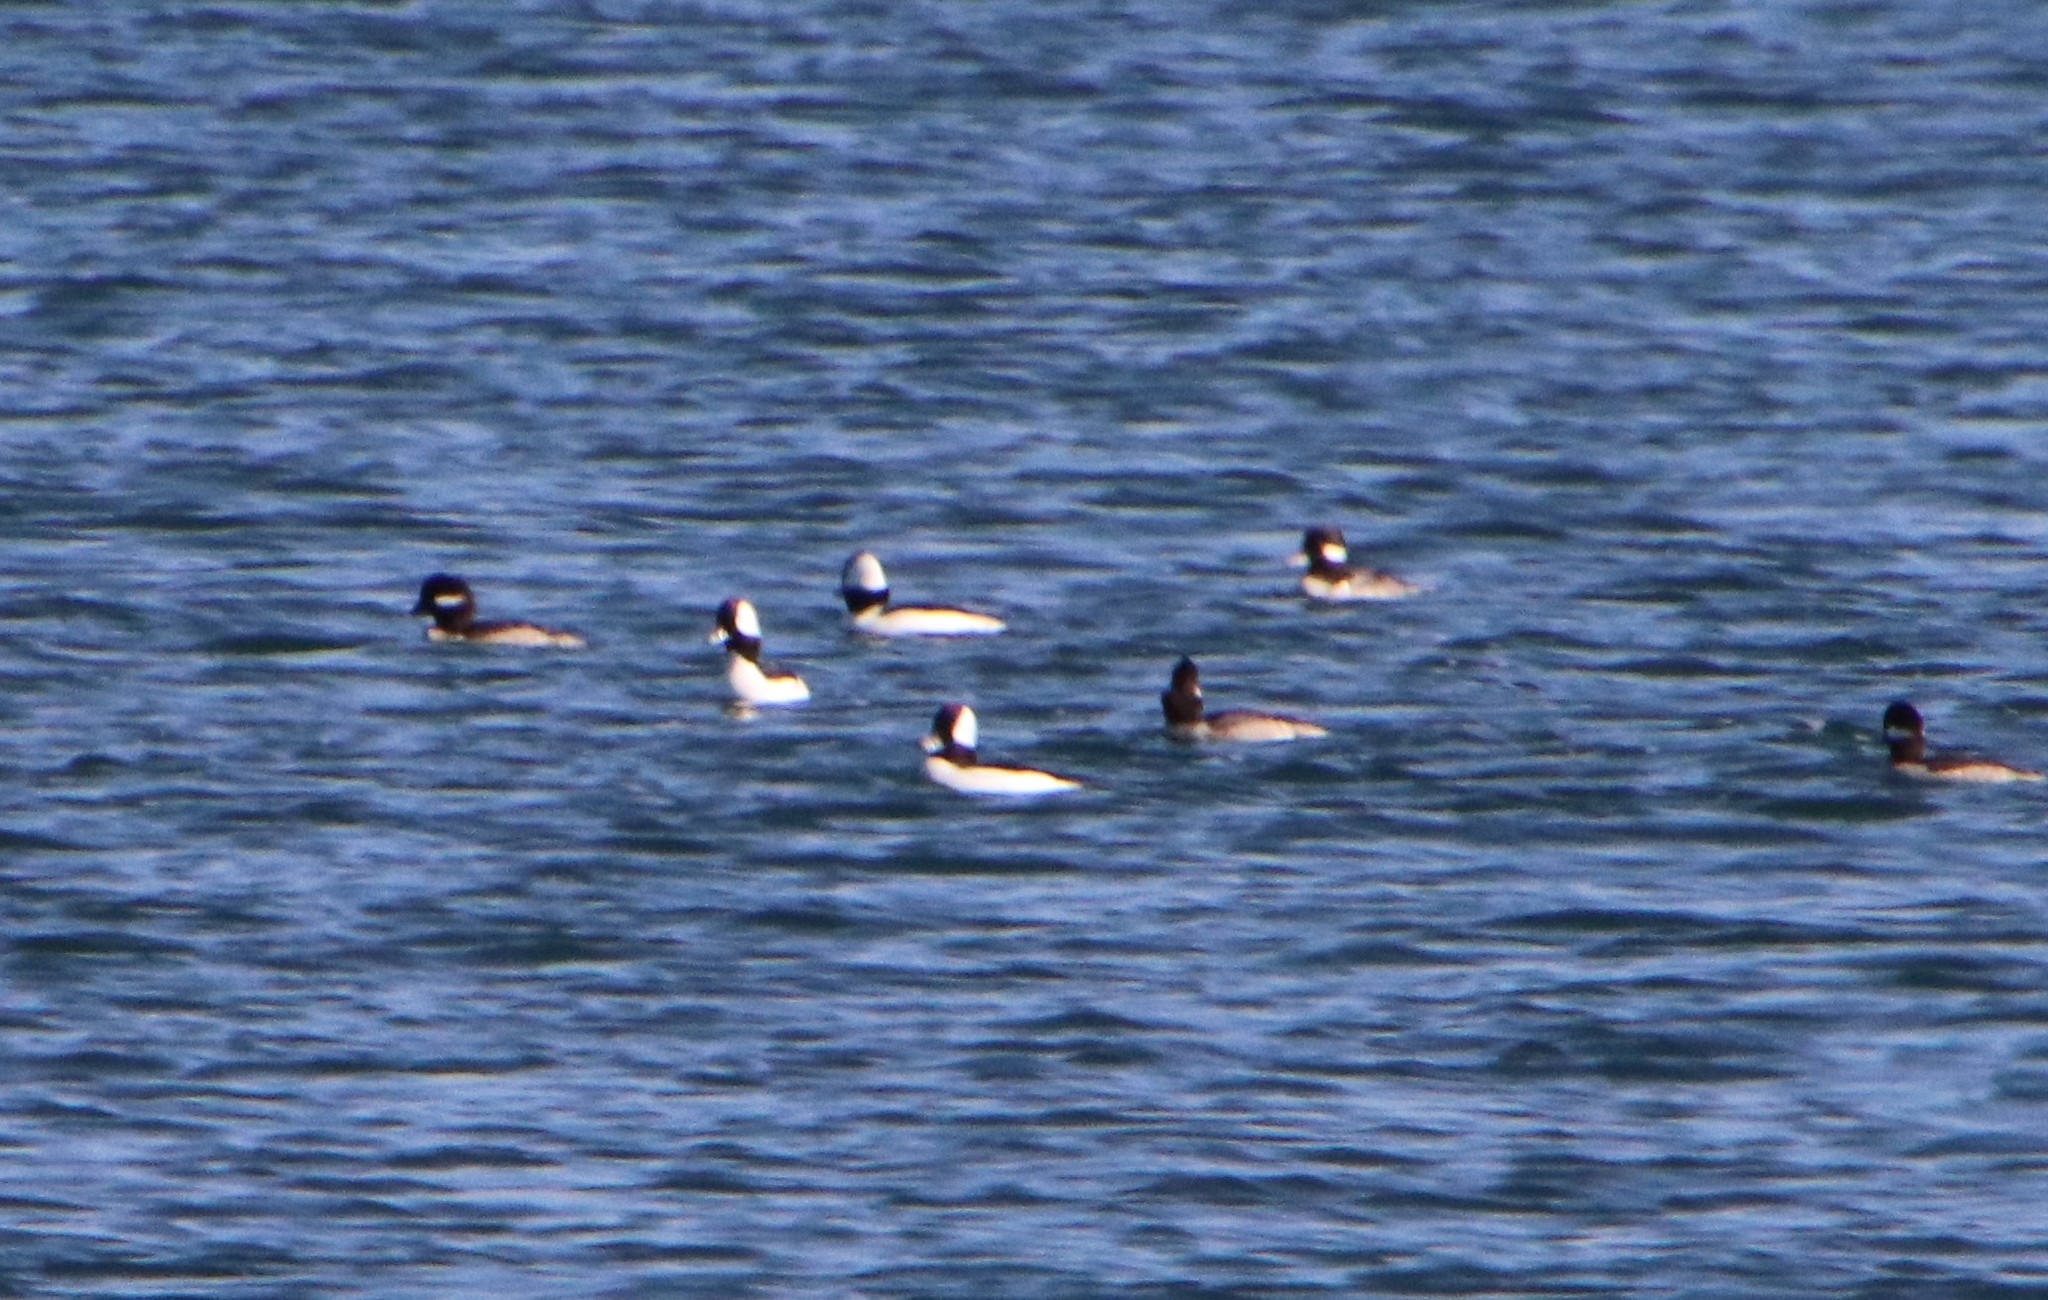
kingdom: Animalia
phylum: Chordata
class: Aves
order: Anseriformes
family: Anatidae
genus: Bucephala
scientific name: Bucephala albeola
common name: Bufflehead
